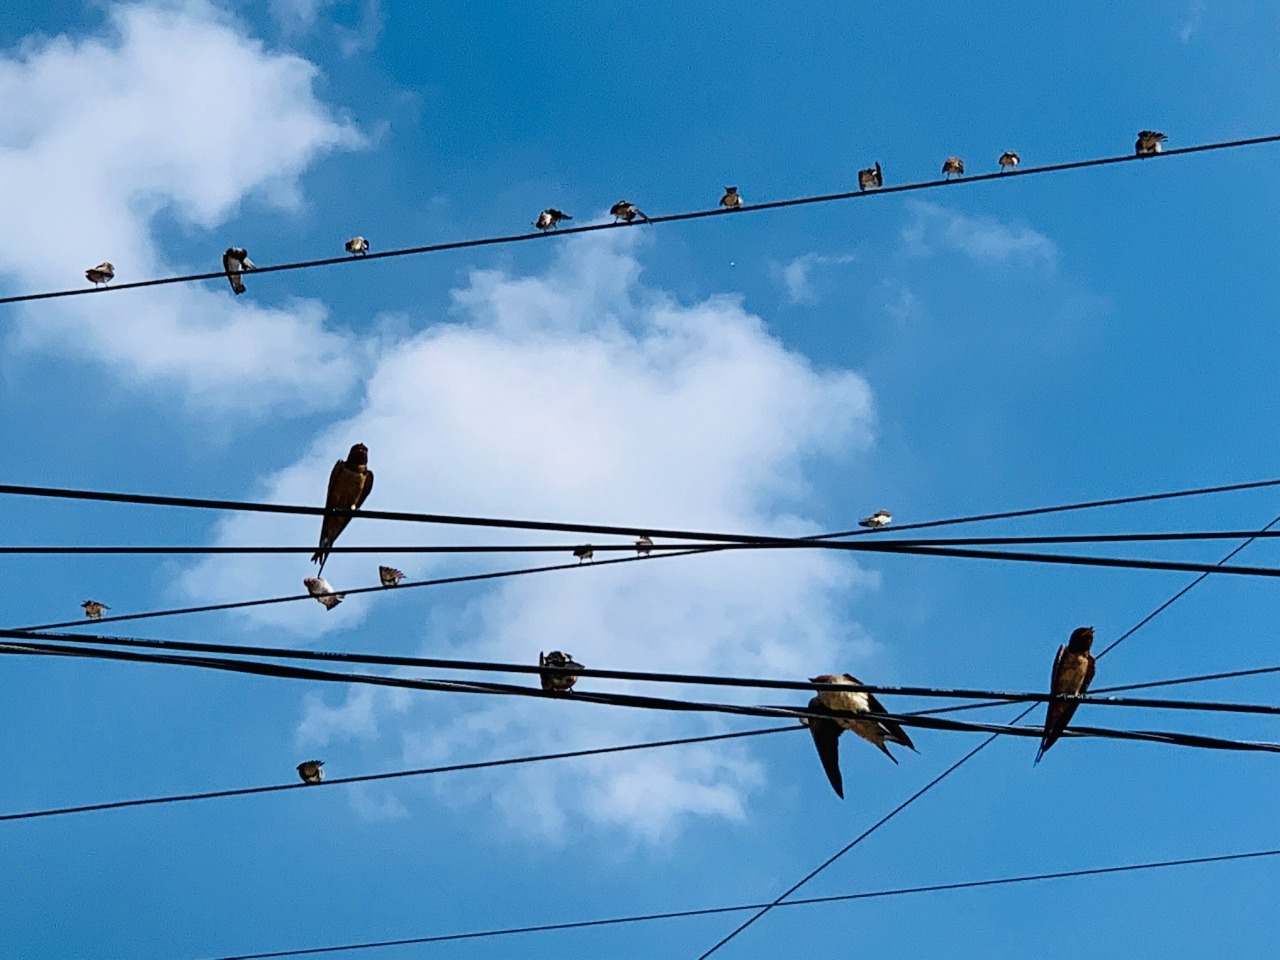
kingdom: Animalia
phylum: Chordata
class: Aves
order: Passeriformes
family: Hirundinidae
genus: Hirundo
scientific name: Hirundo rustica
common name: Barn swallow
